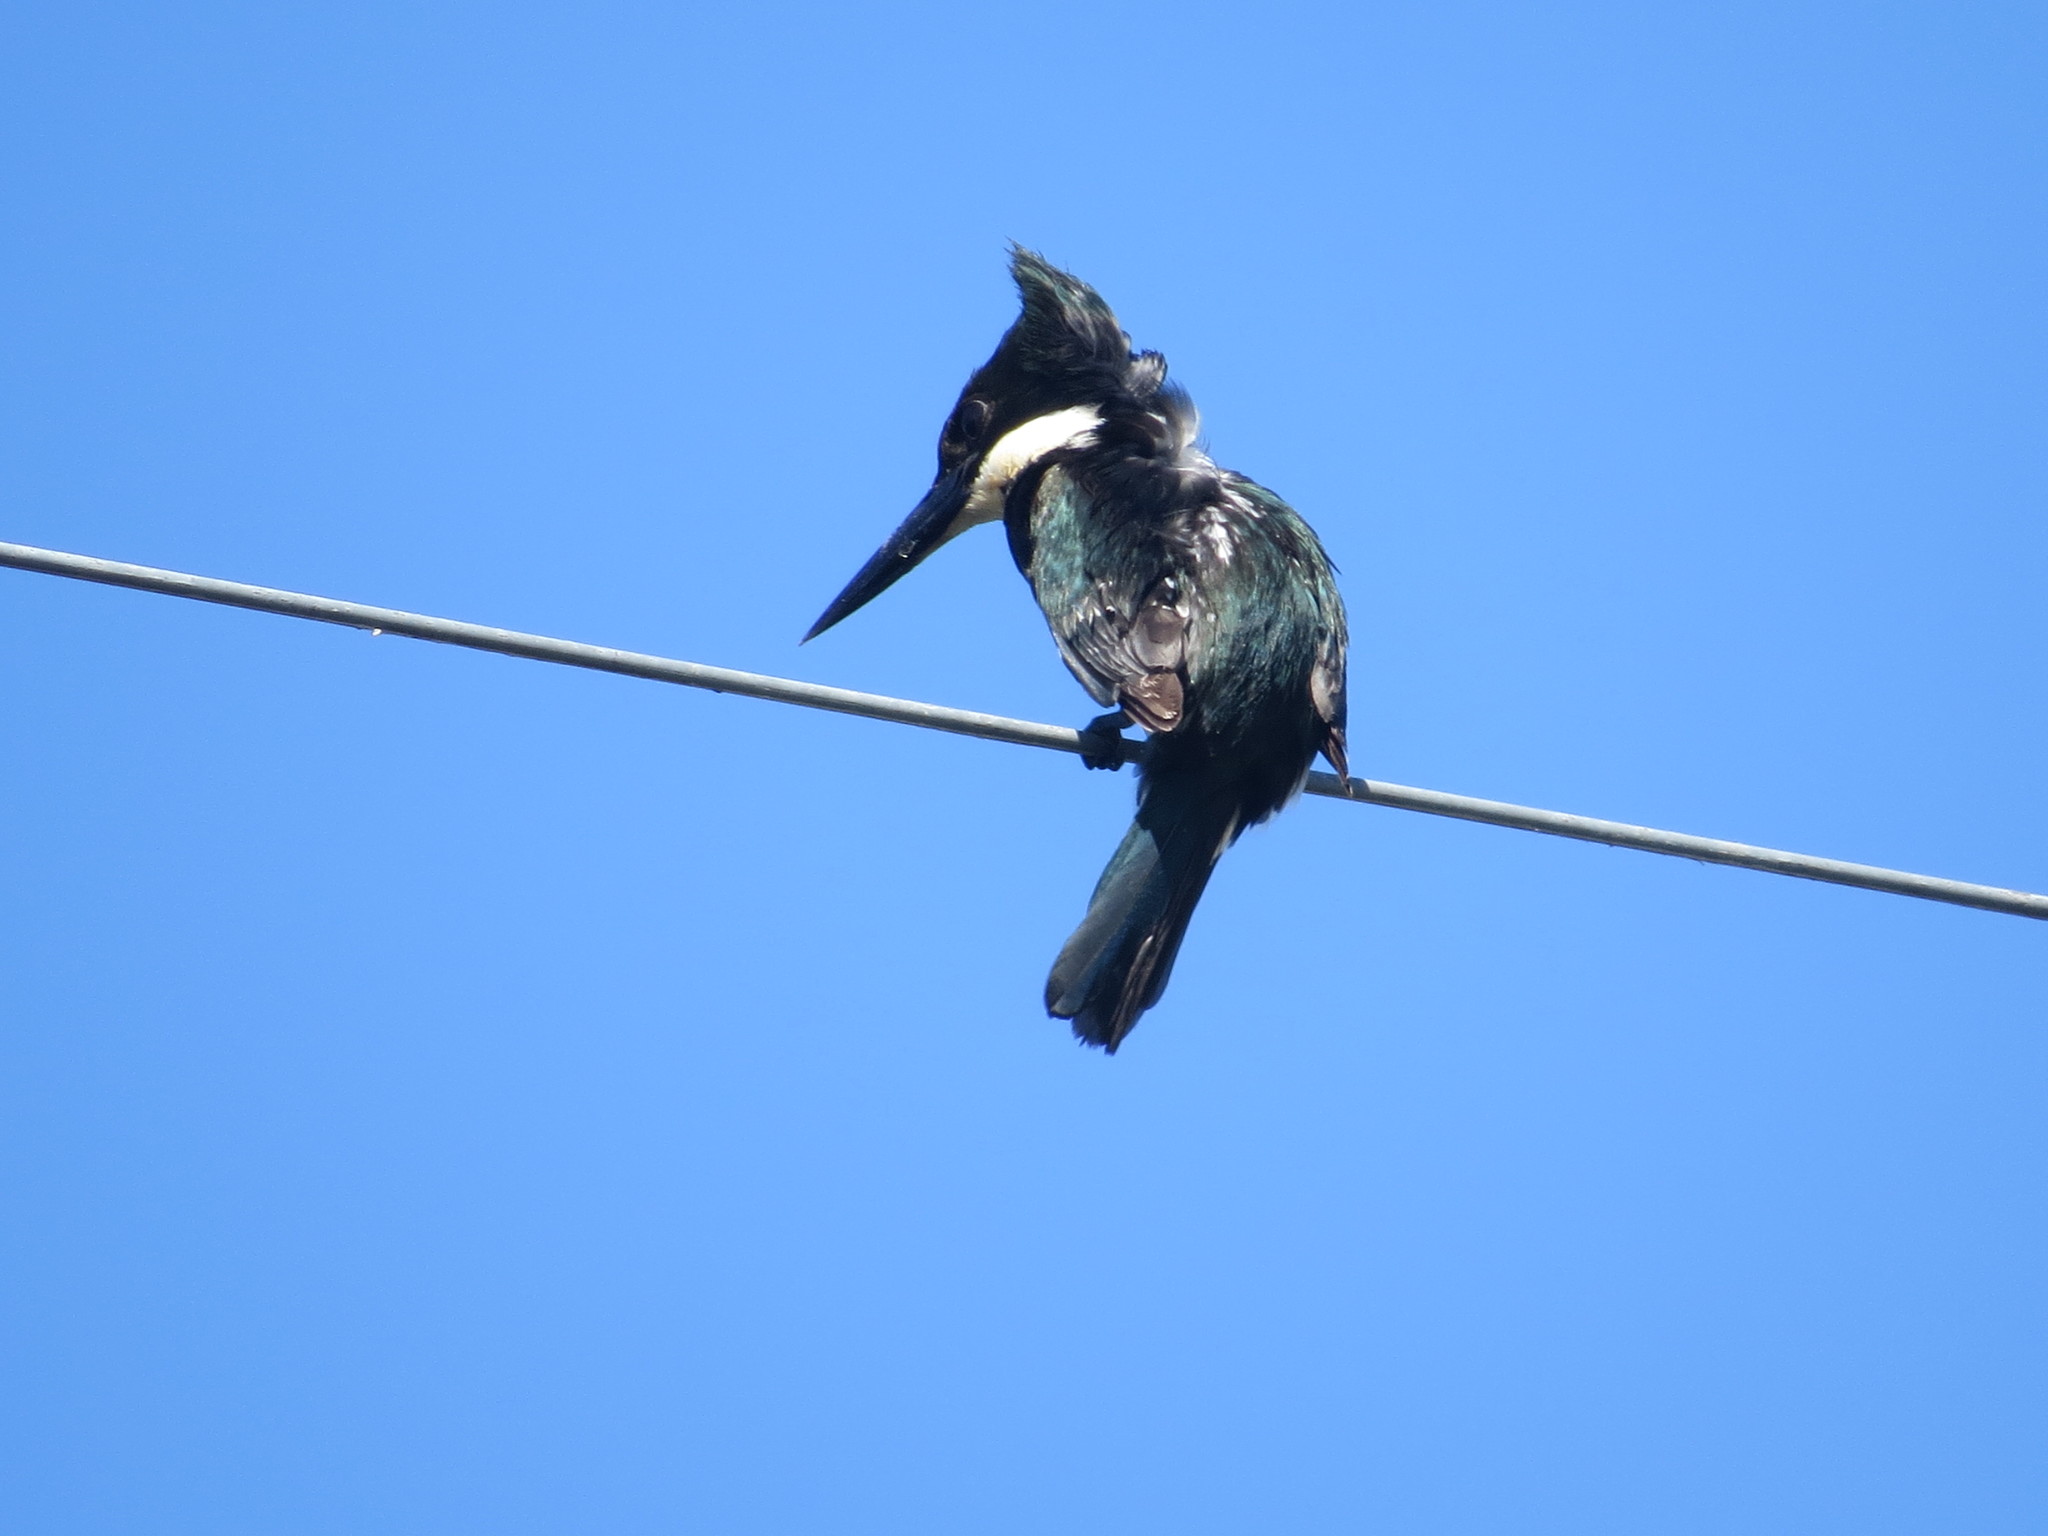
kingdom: Animalia
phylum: Chordata
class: Aves
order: Coraciiformes
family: Alcedinidae
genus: Chloroceryle
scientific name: Chloroceryle amazona
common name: Amazon kingfisher
